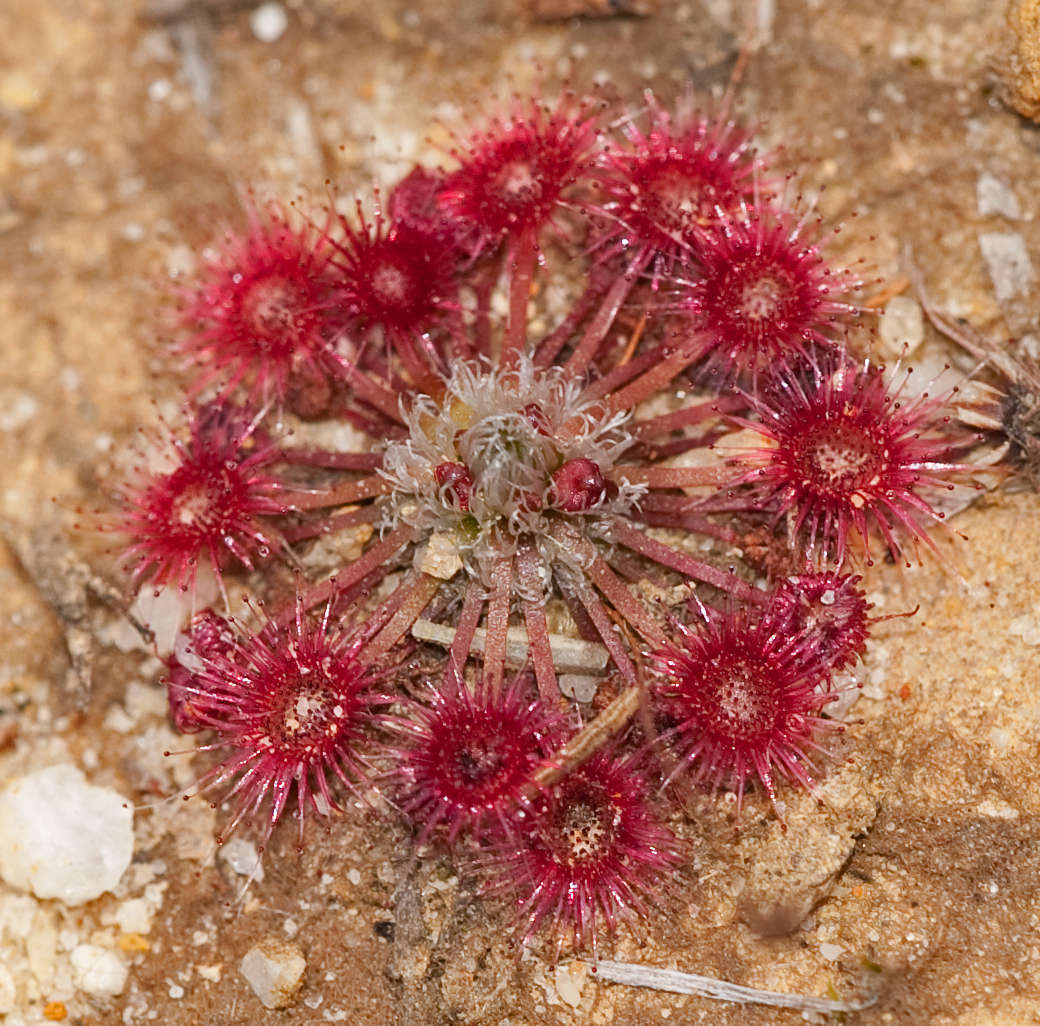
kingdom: Plantae
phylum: Tracheophyta
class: Magnoliopsida
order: Caryophyllales
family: Droseraceae
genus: Drosera
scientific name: Drosera pygmaea
